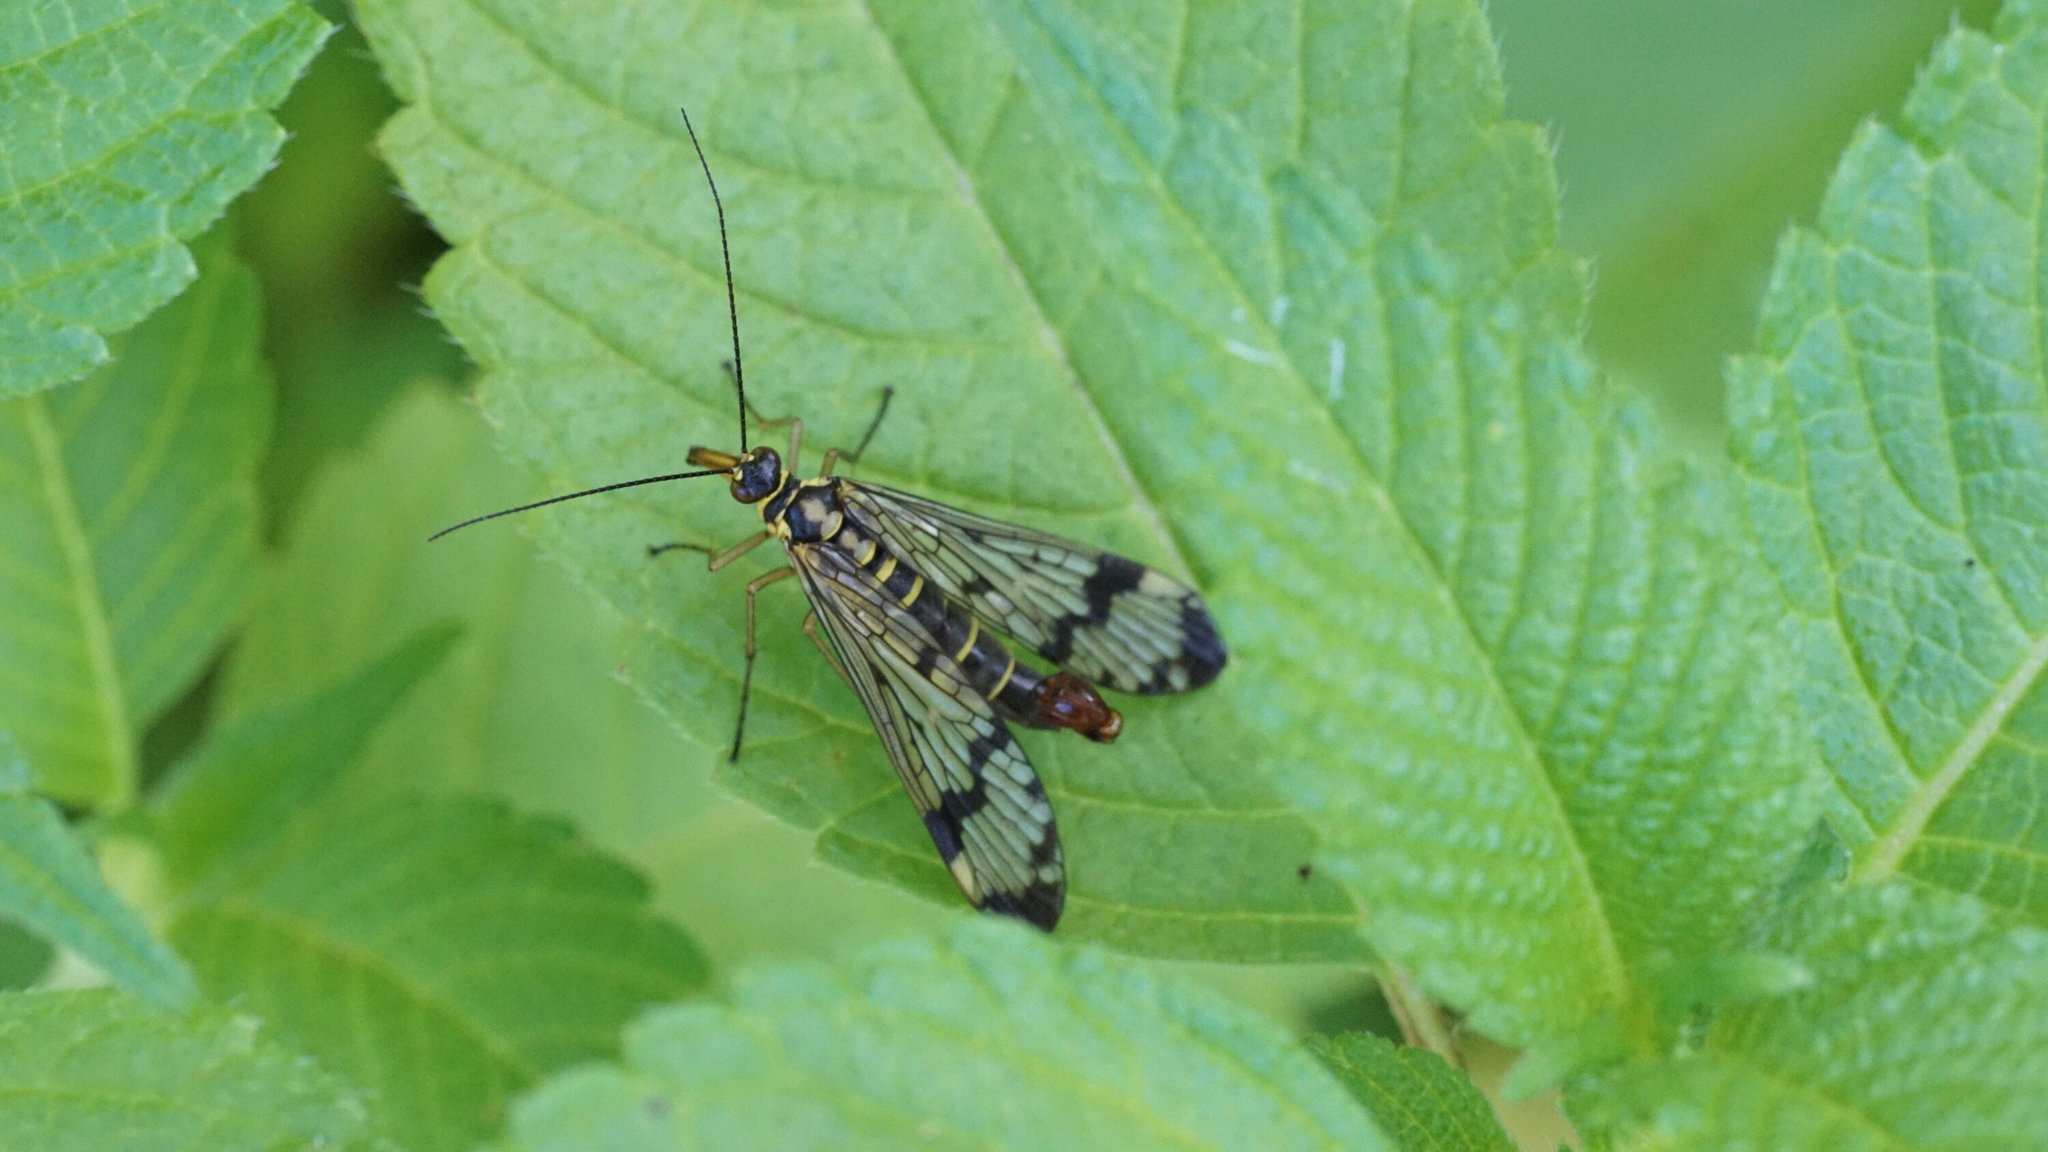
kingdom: Animalia
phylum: Arthropoda
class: Insecta
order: Mecoptera
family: Panorpidae
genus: Panorpa
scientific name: Panorpa communis
